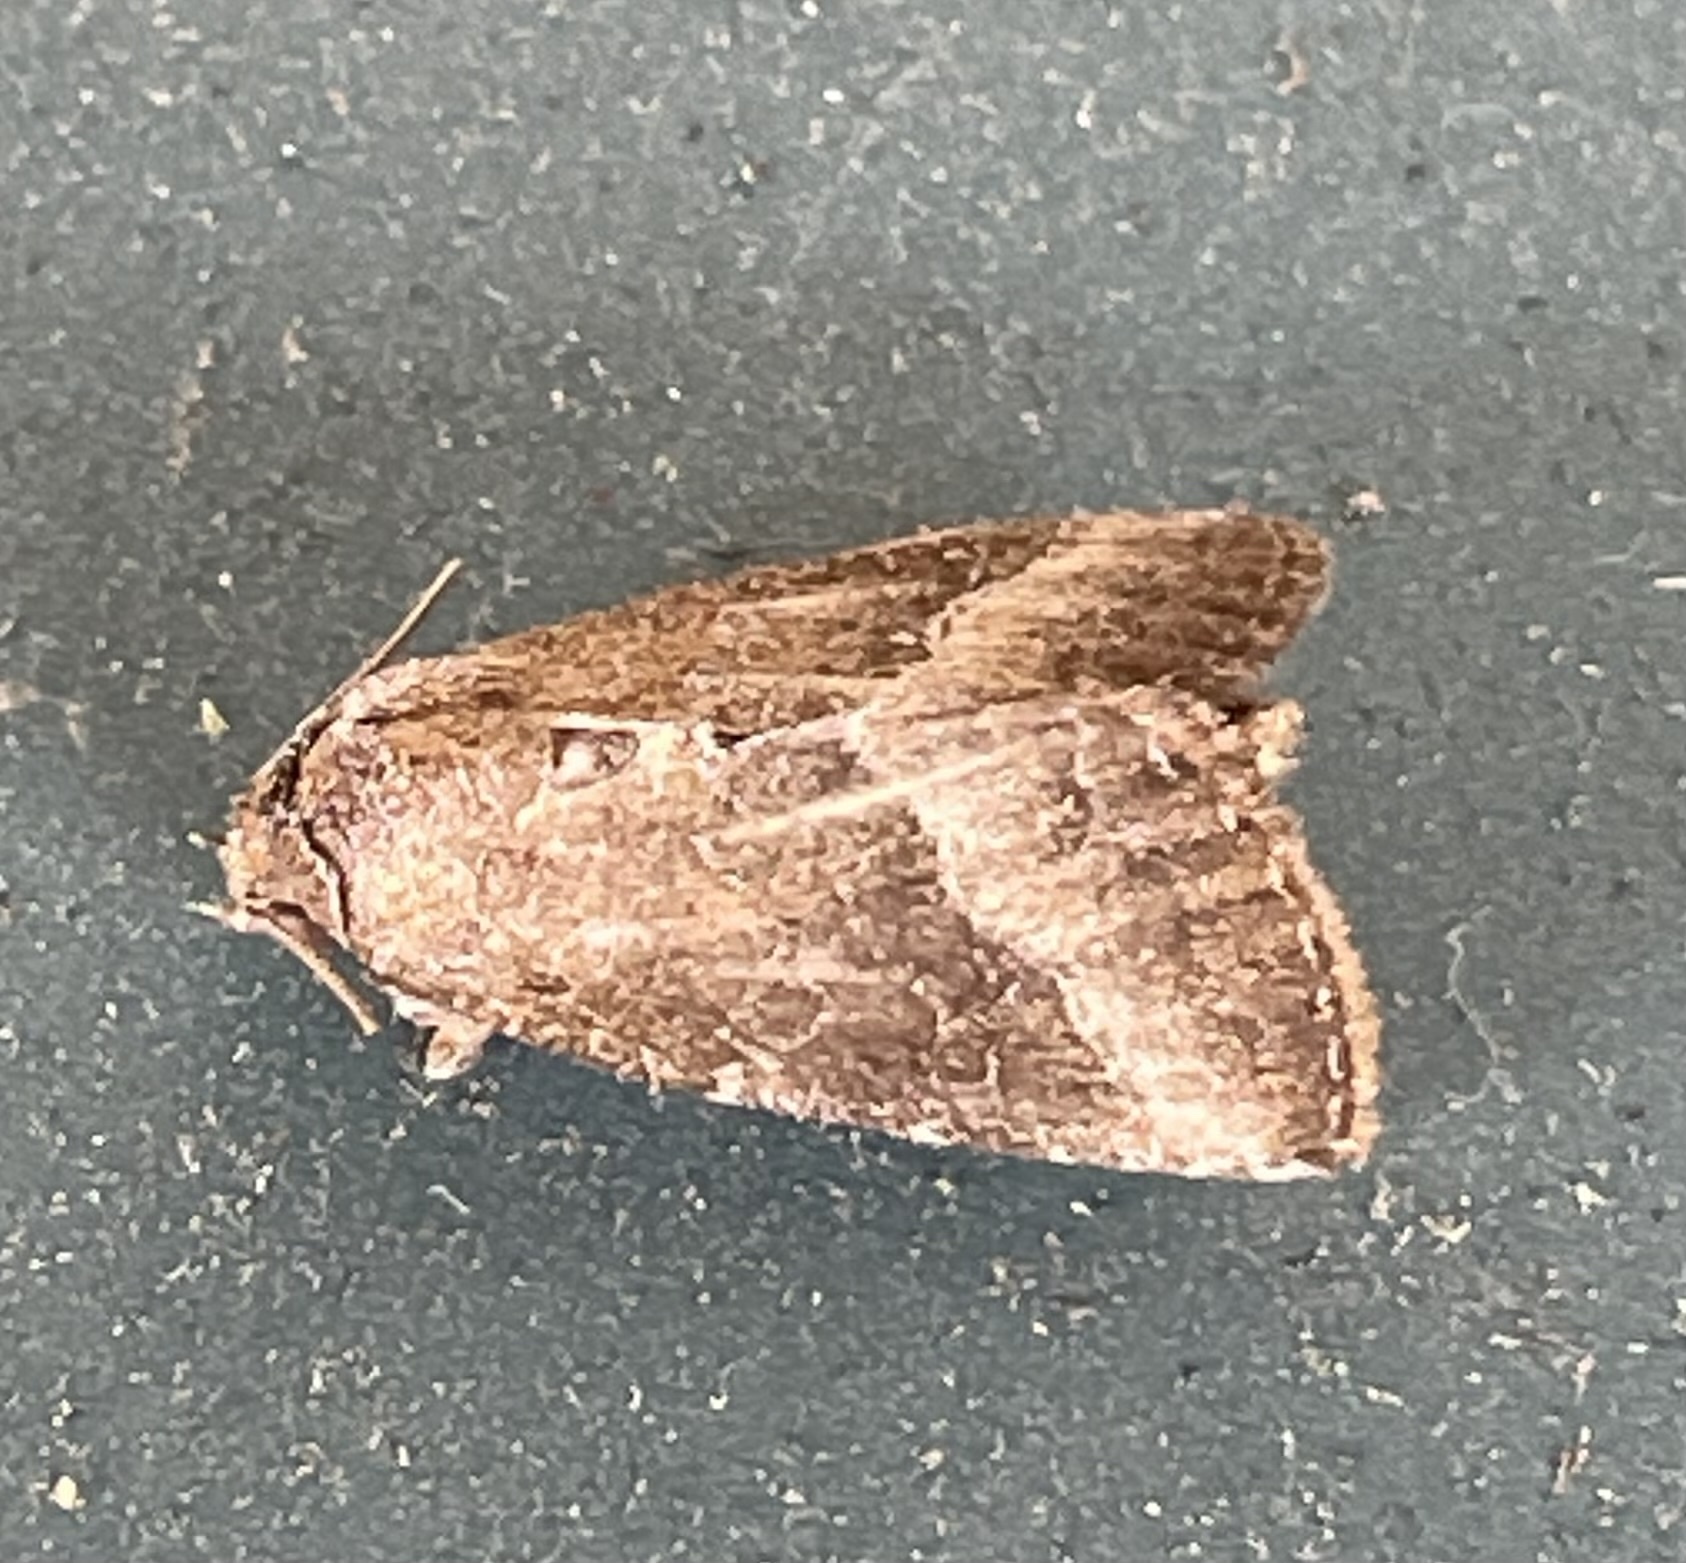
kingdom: Animalia
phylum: Arthropoda
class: Insecta
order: Lepidoptera
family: Noctuidae
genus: Ogdoconta
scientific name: Ogdoconta cinereola
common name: Common pinkband
